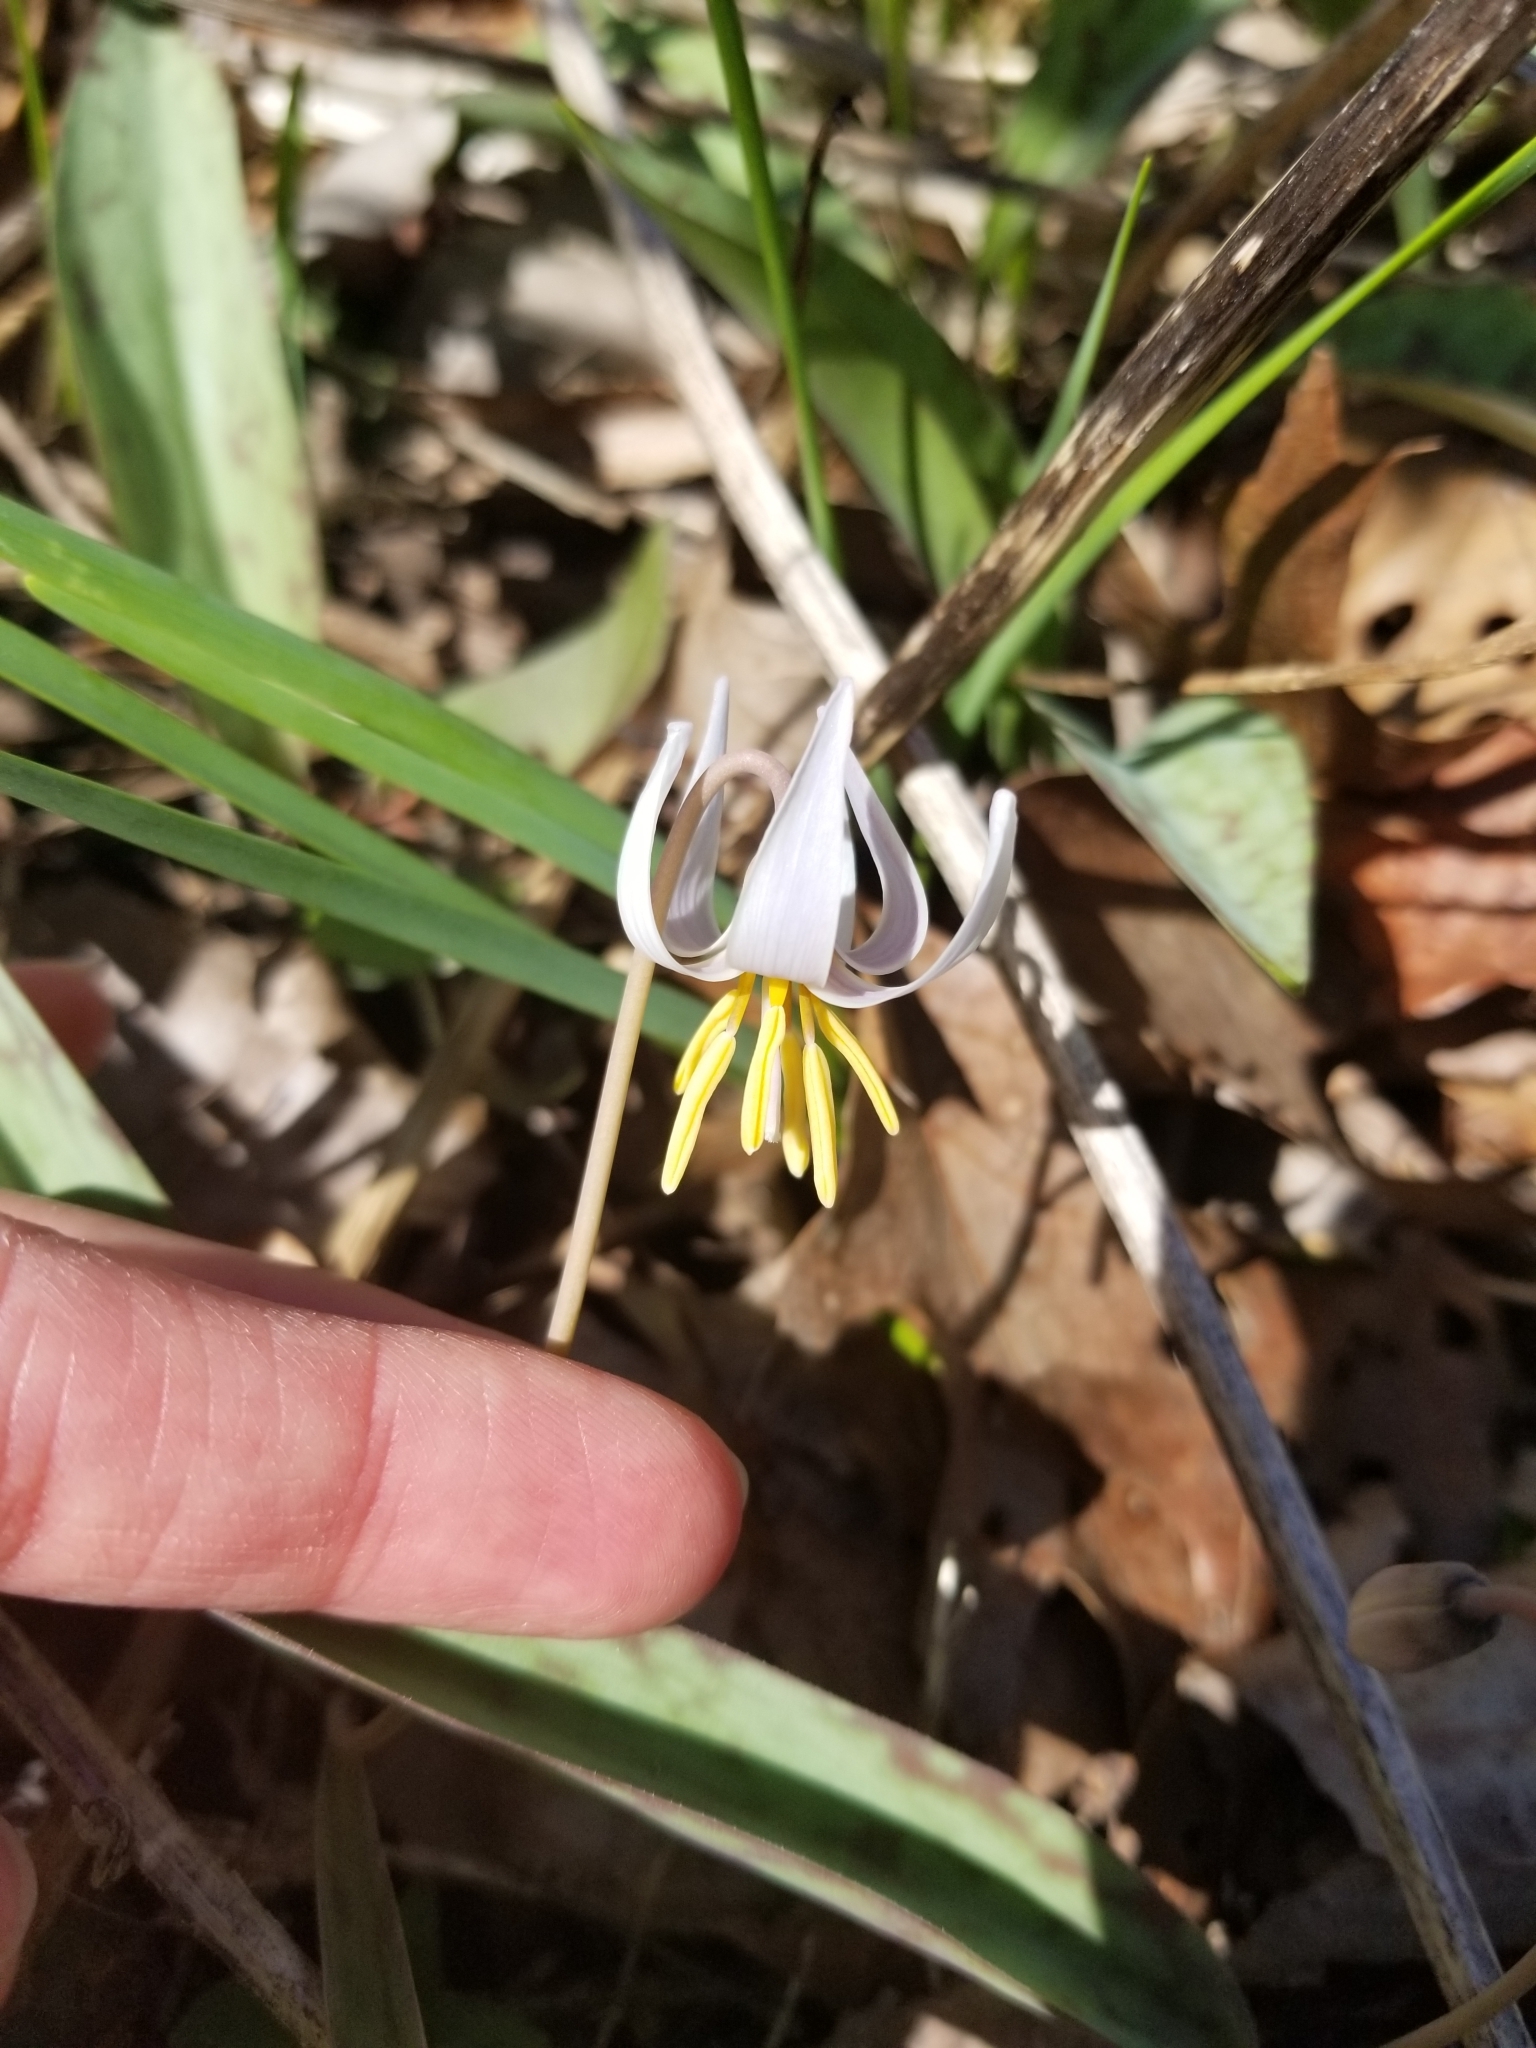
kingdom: Plantae
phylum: Tracheophyta
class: Liliopsida
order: Liliales
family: Liliaceae
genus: Erythronium
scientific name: Erythronium albidum
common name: White trout-lily
